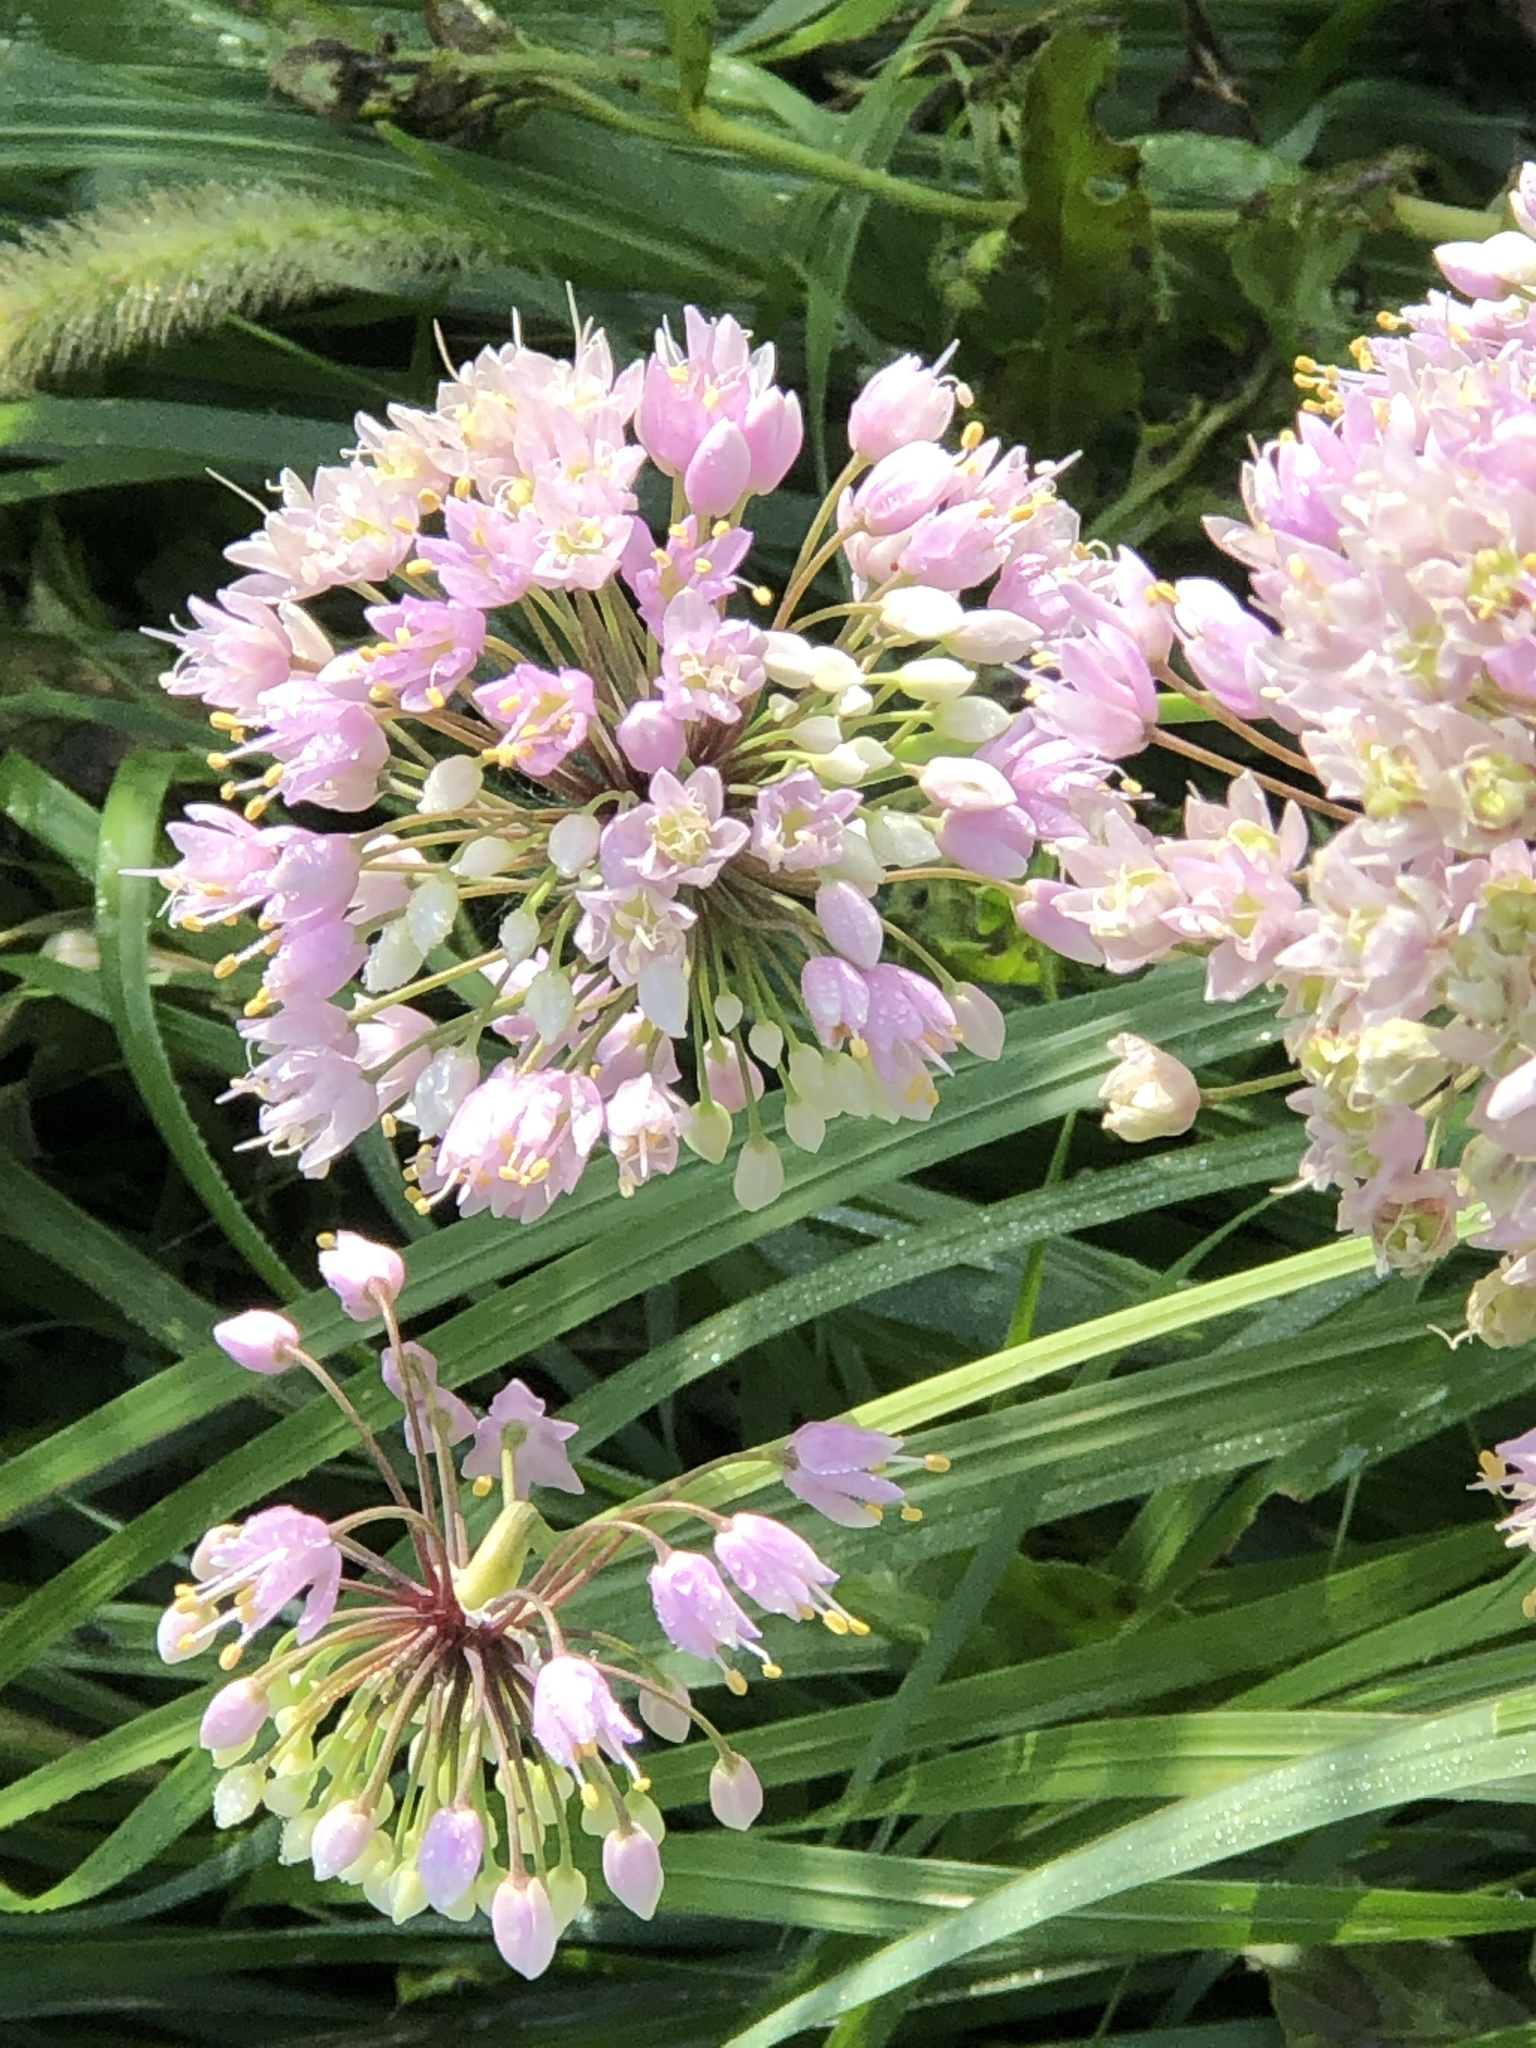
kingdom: Plantae
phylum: Tracheophyta
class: Liliopsida
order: Asparagales
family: Amaryllidaceae
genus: Allium
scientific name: Allium cernuum
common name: Nodding onion
